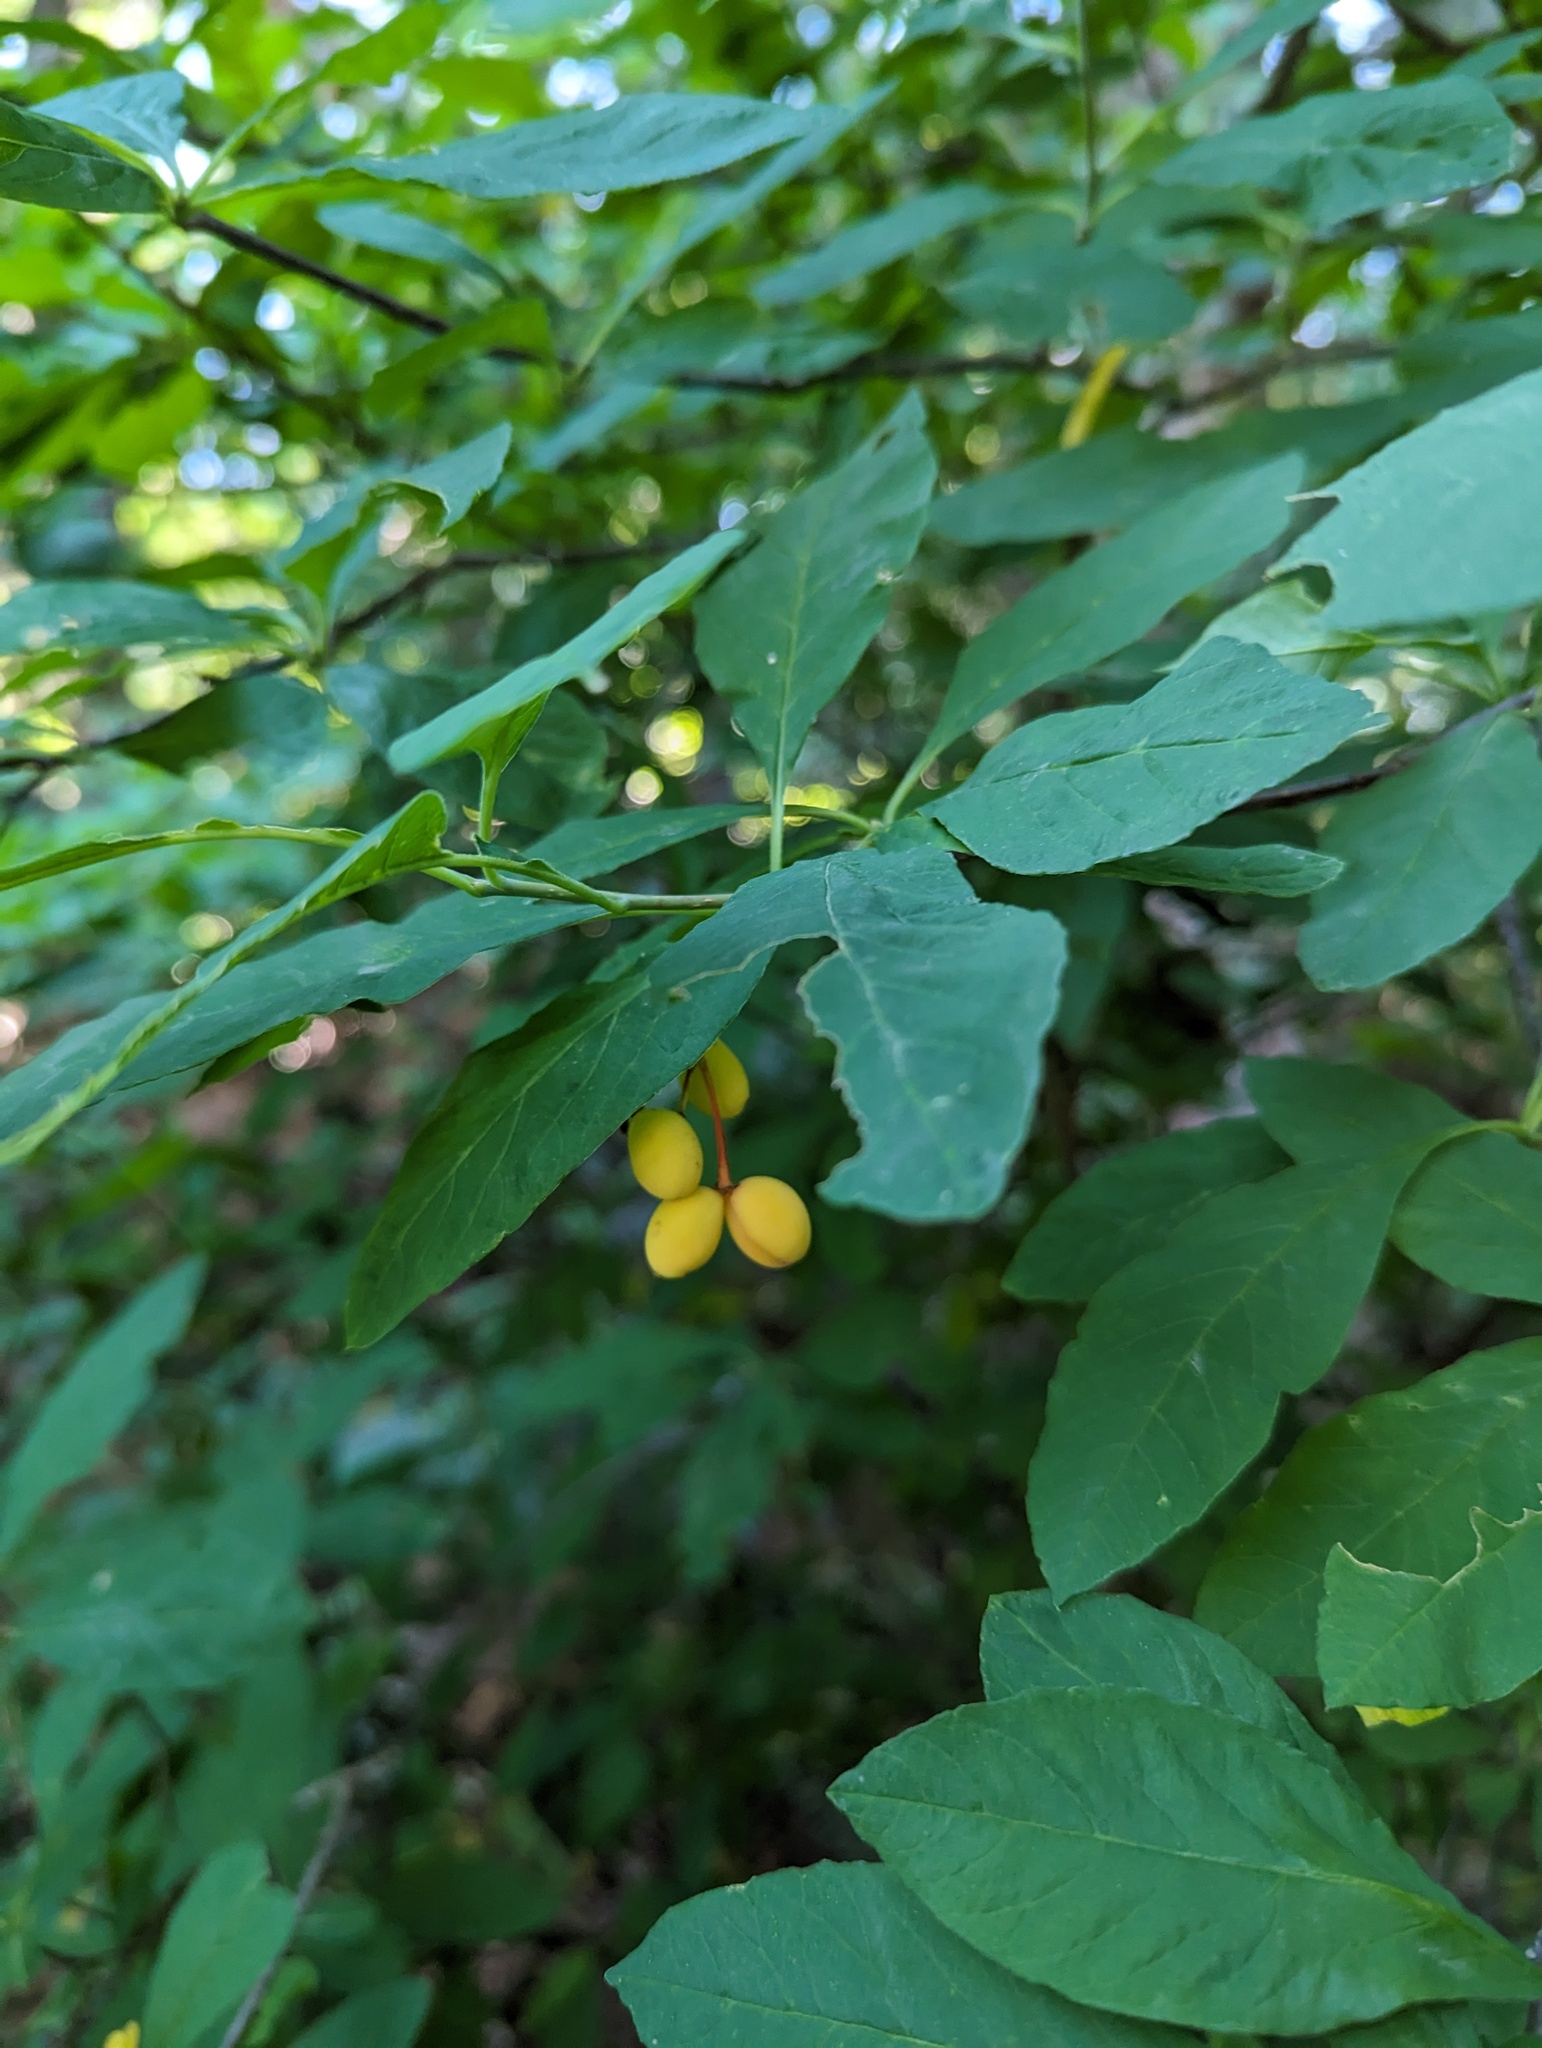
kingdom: Plantae
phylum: Tracheophyta
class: Magnoliopsida
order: Rosales
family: Rosaceae
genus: Oemleria
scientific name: Oemleria cerasiformis
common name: Osoberry
